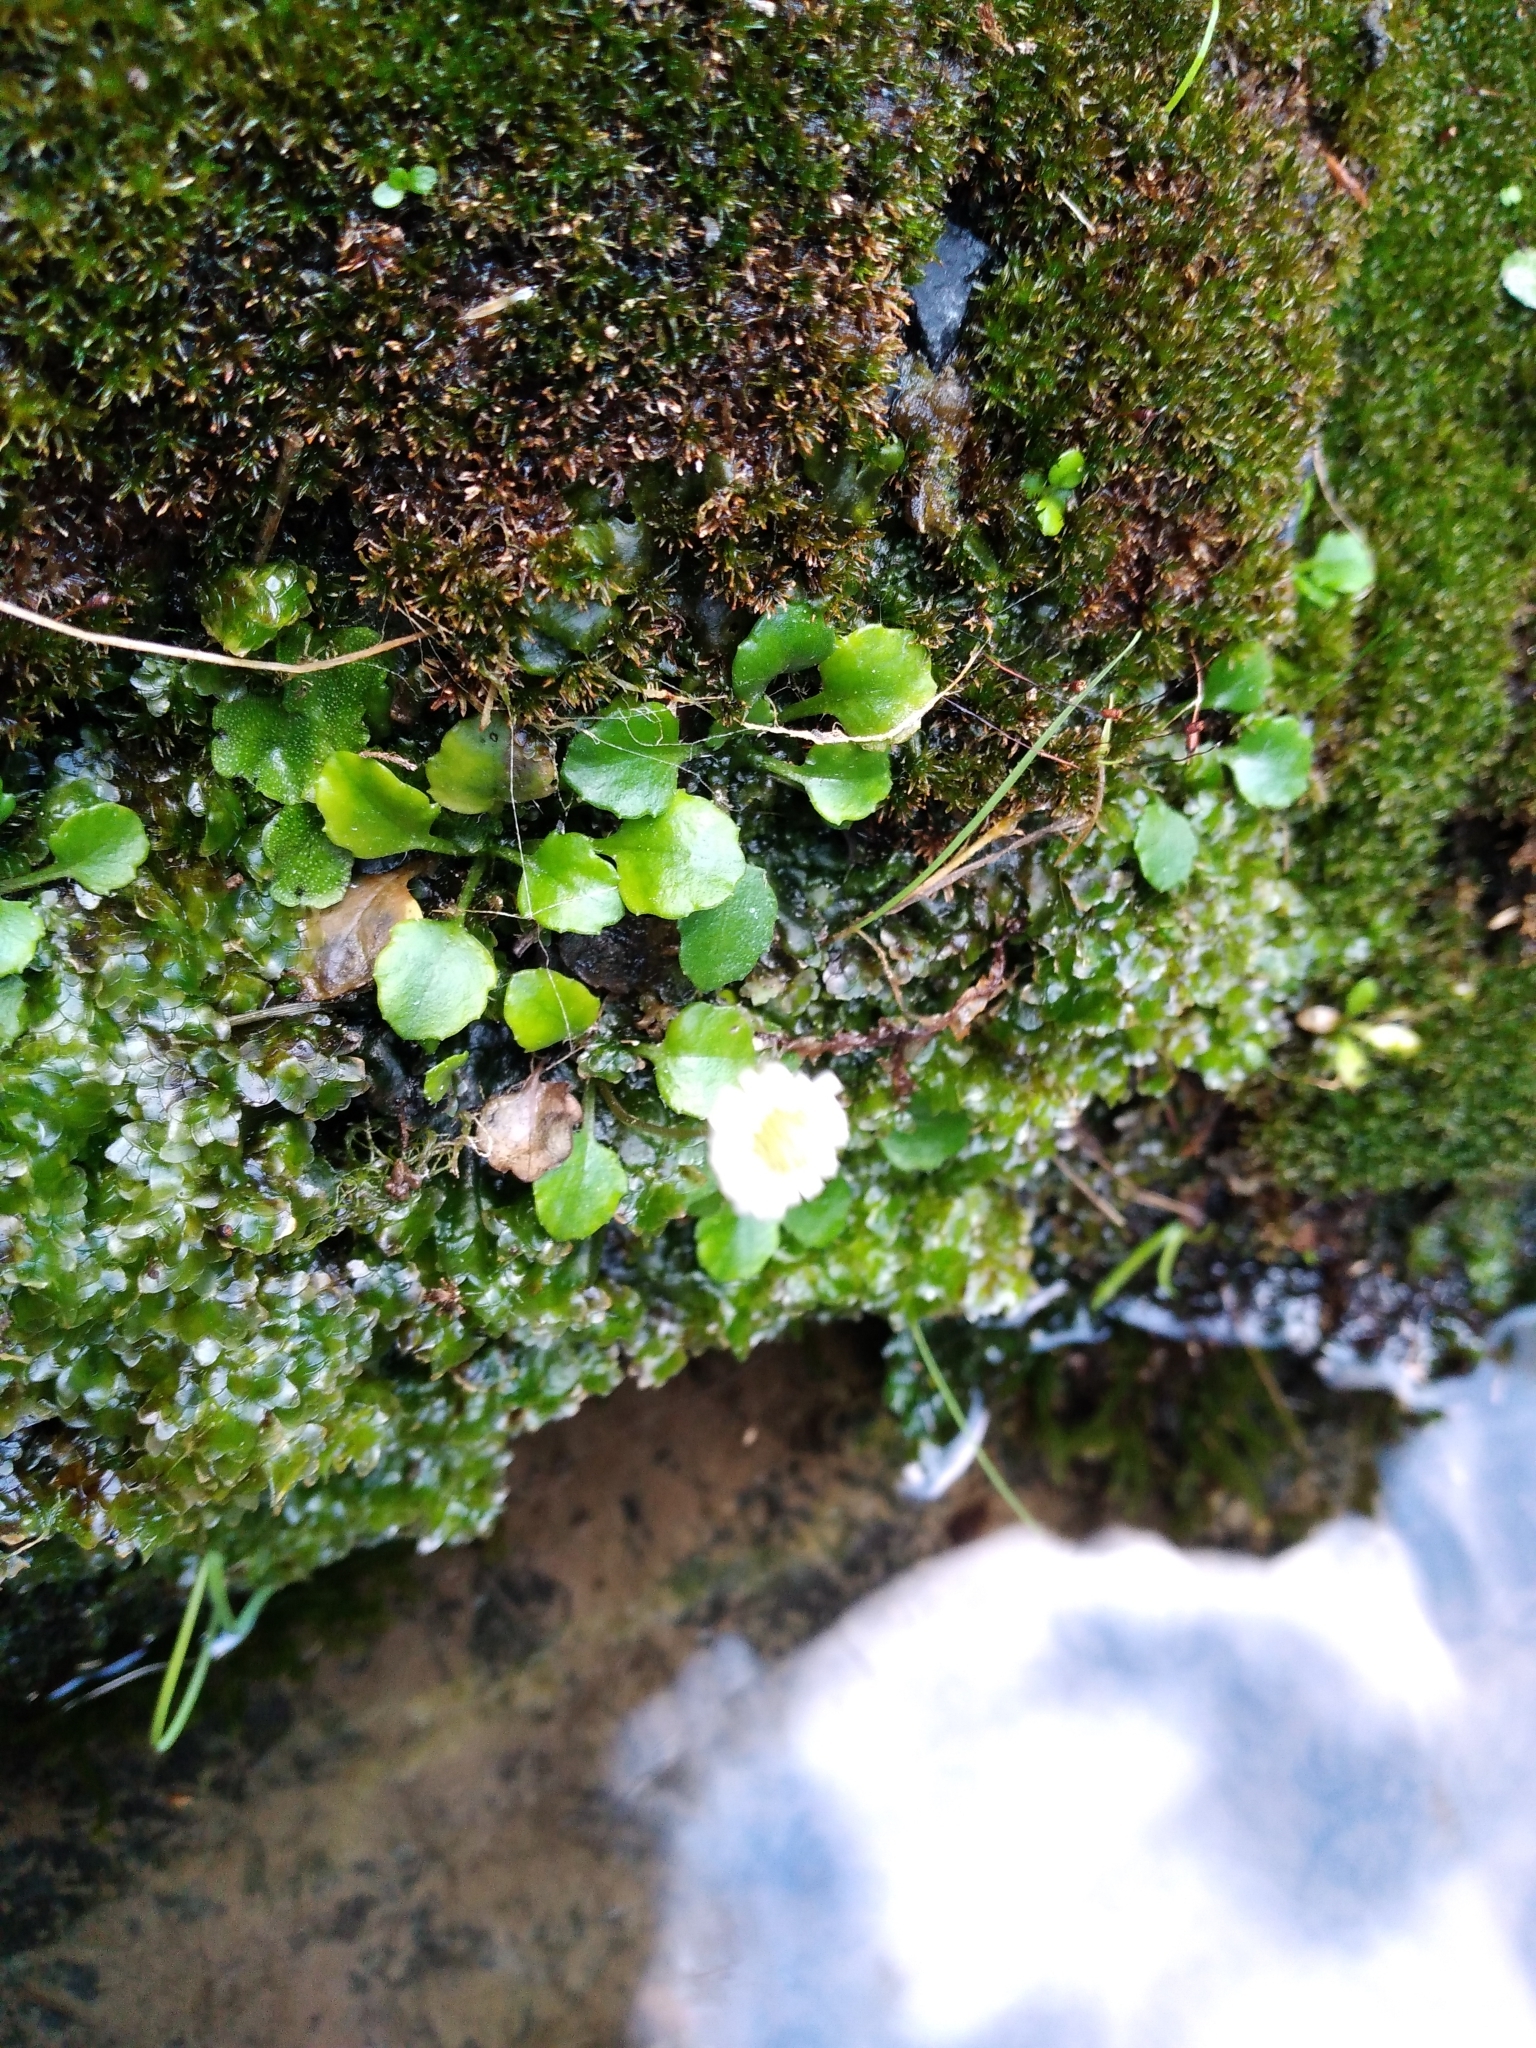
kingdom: Plantae
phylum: Tracheophyta
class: Magnoliopsida
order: Asterales
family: Asteraceae
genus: Lagenophora
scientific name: Lagenophora pumila
